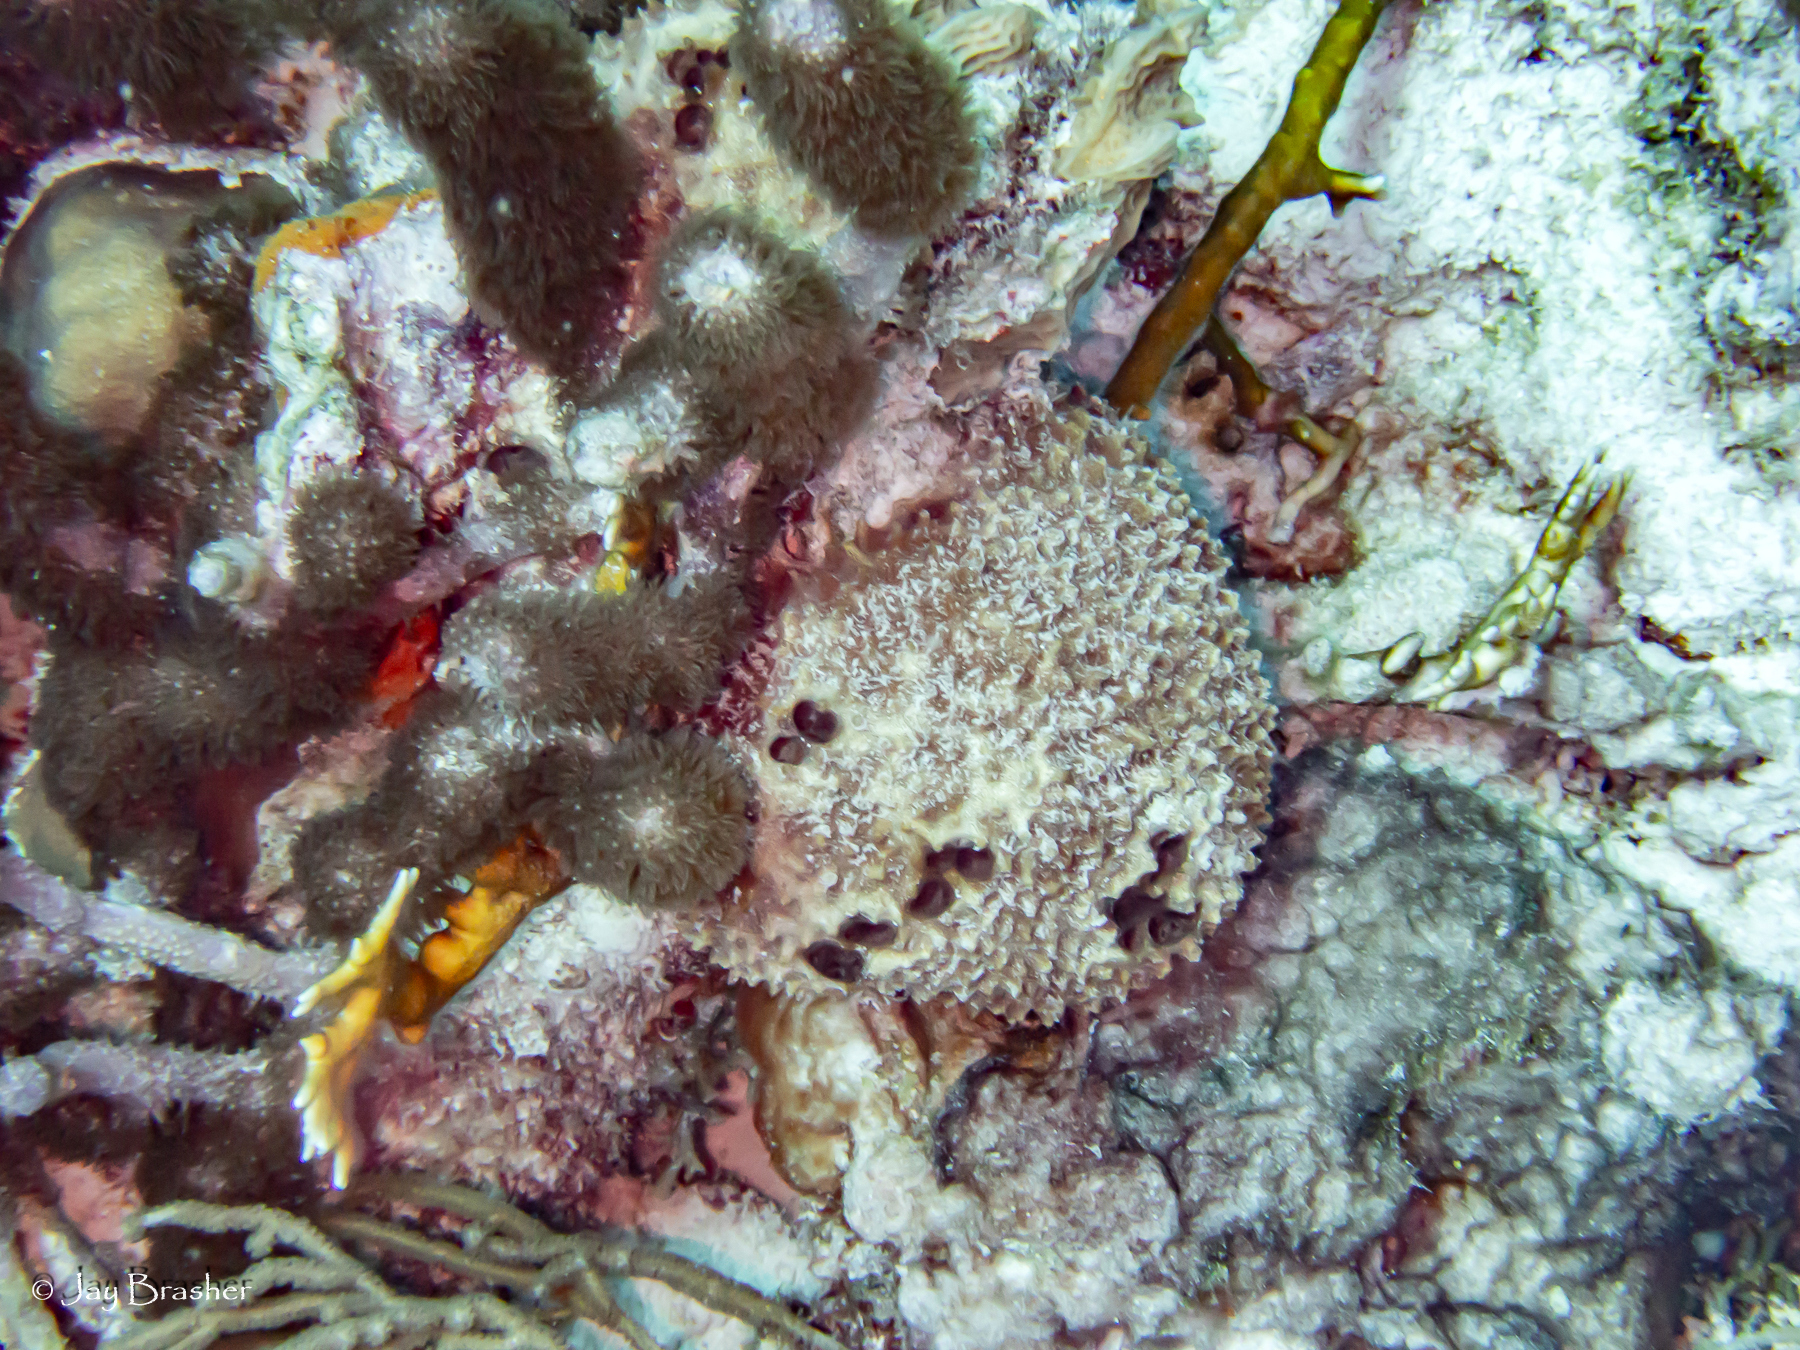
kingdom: Animalia
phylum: Porifera
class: Demospongiae
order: Dictyoceratida
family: Irciniidae
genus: Ircinia
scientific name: Ircinia felix
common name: Stinker sponge
